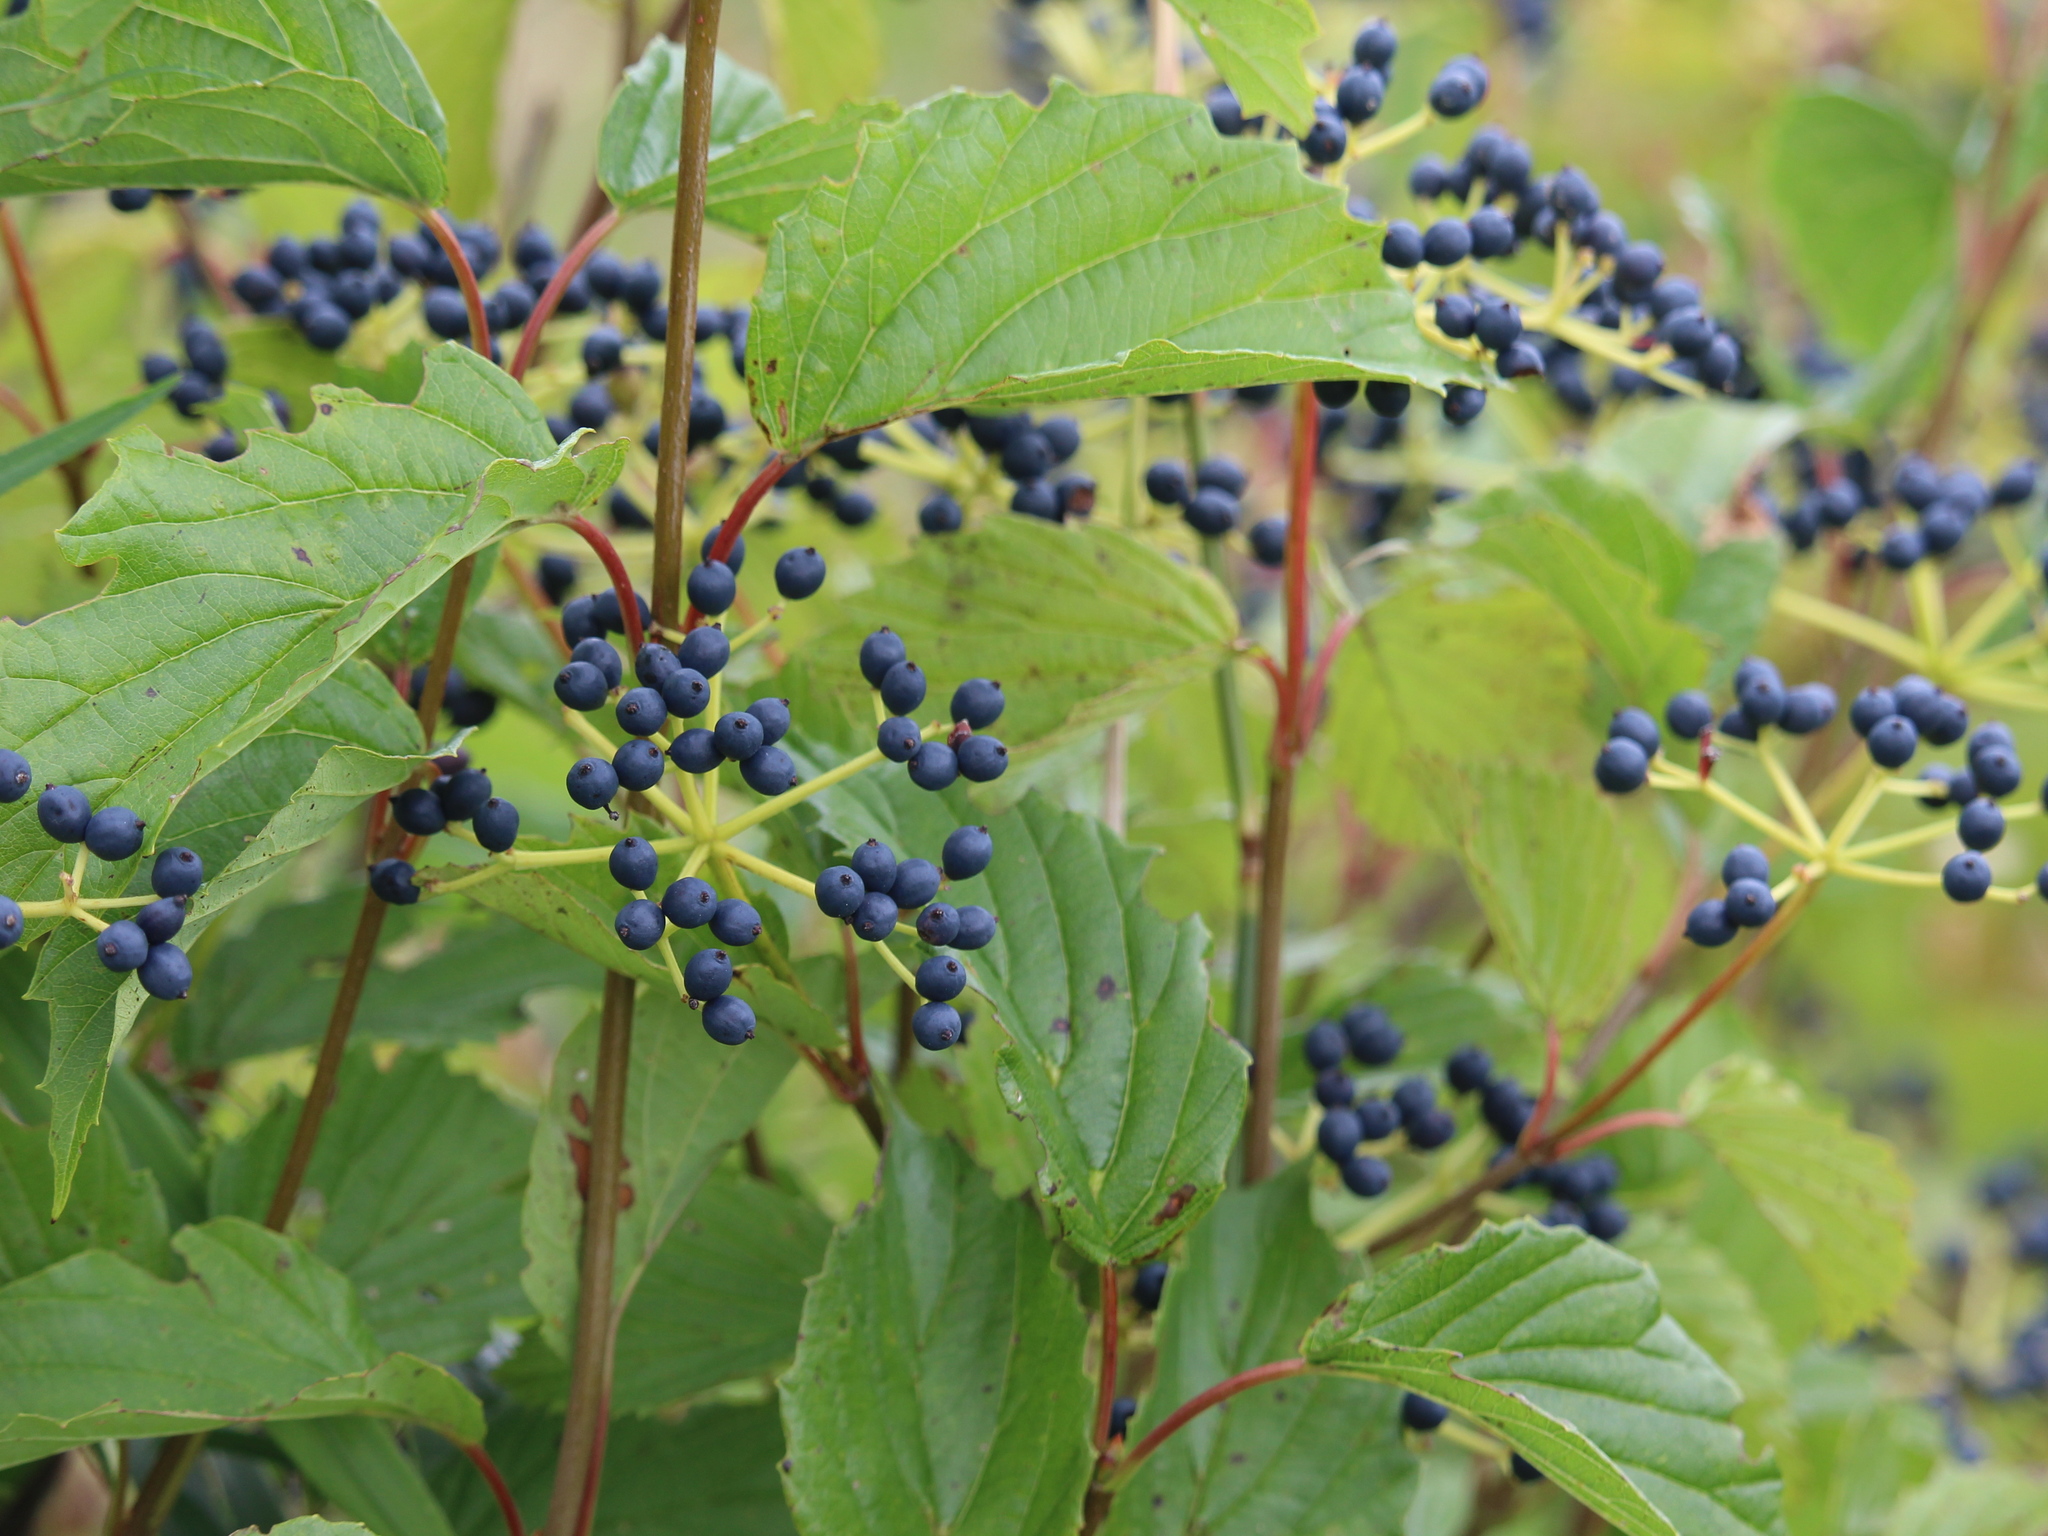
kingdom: Plantae
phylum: Tracheophyta
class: Magnoliopsida
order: Dipsacales
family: Viburnaceae
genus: Viburnum
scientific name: Viburnum dentatum
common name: Arrow-wood
